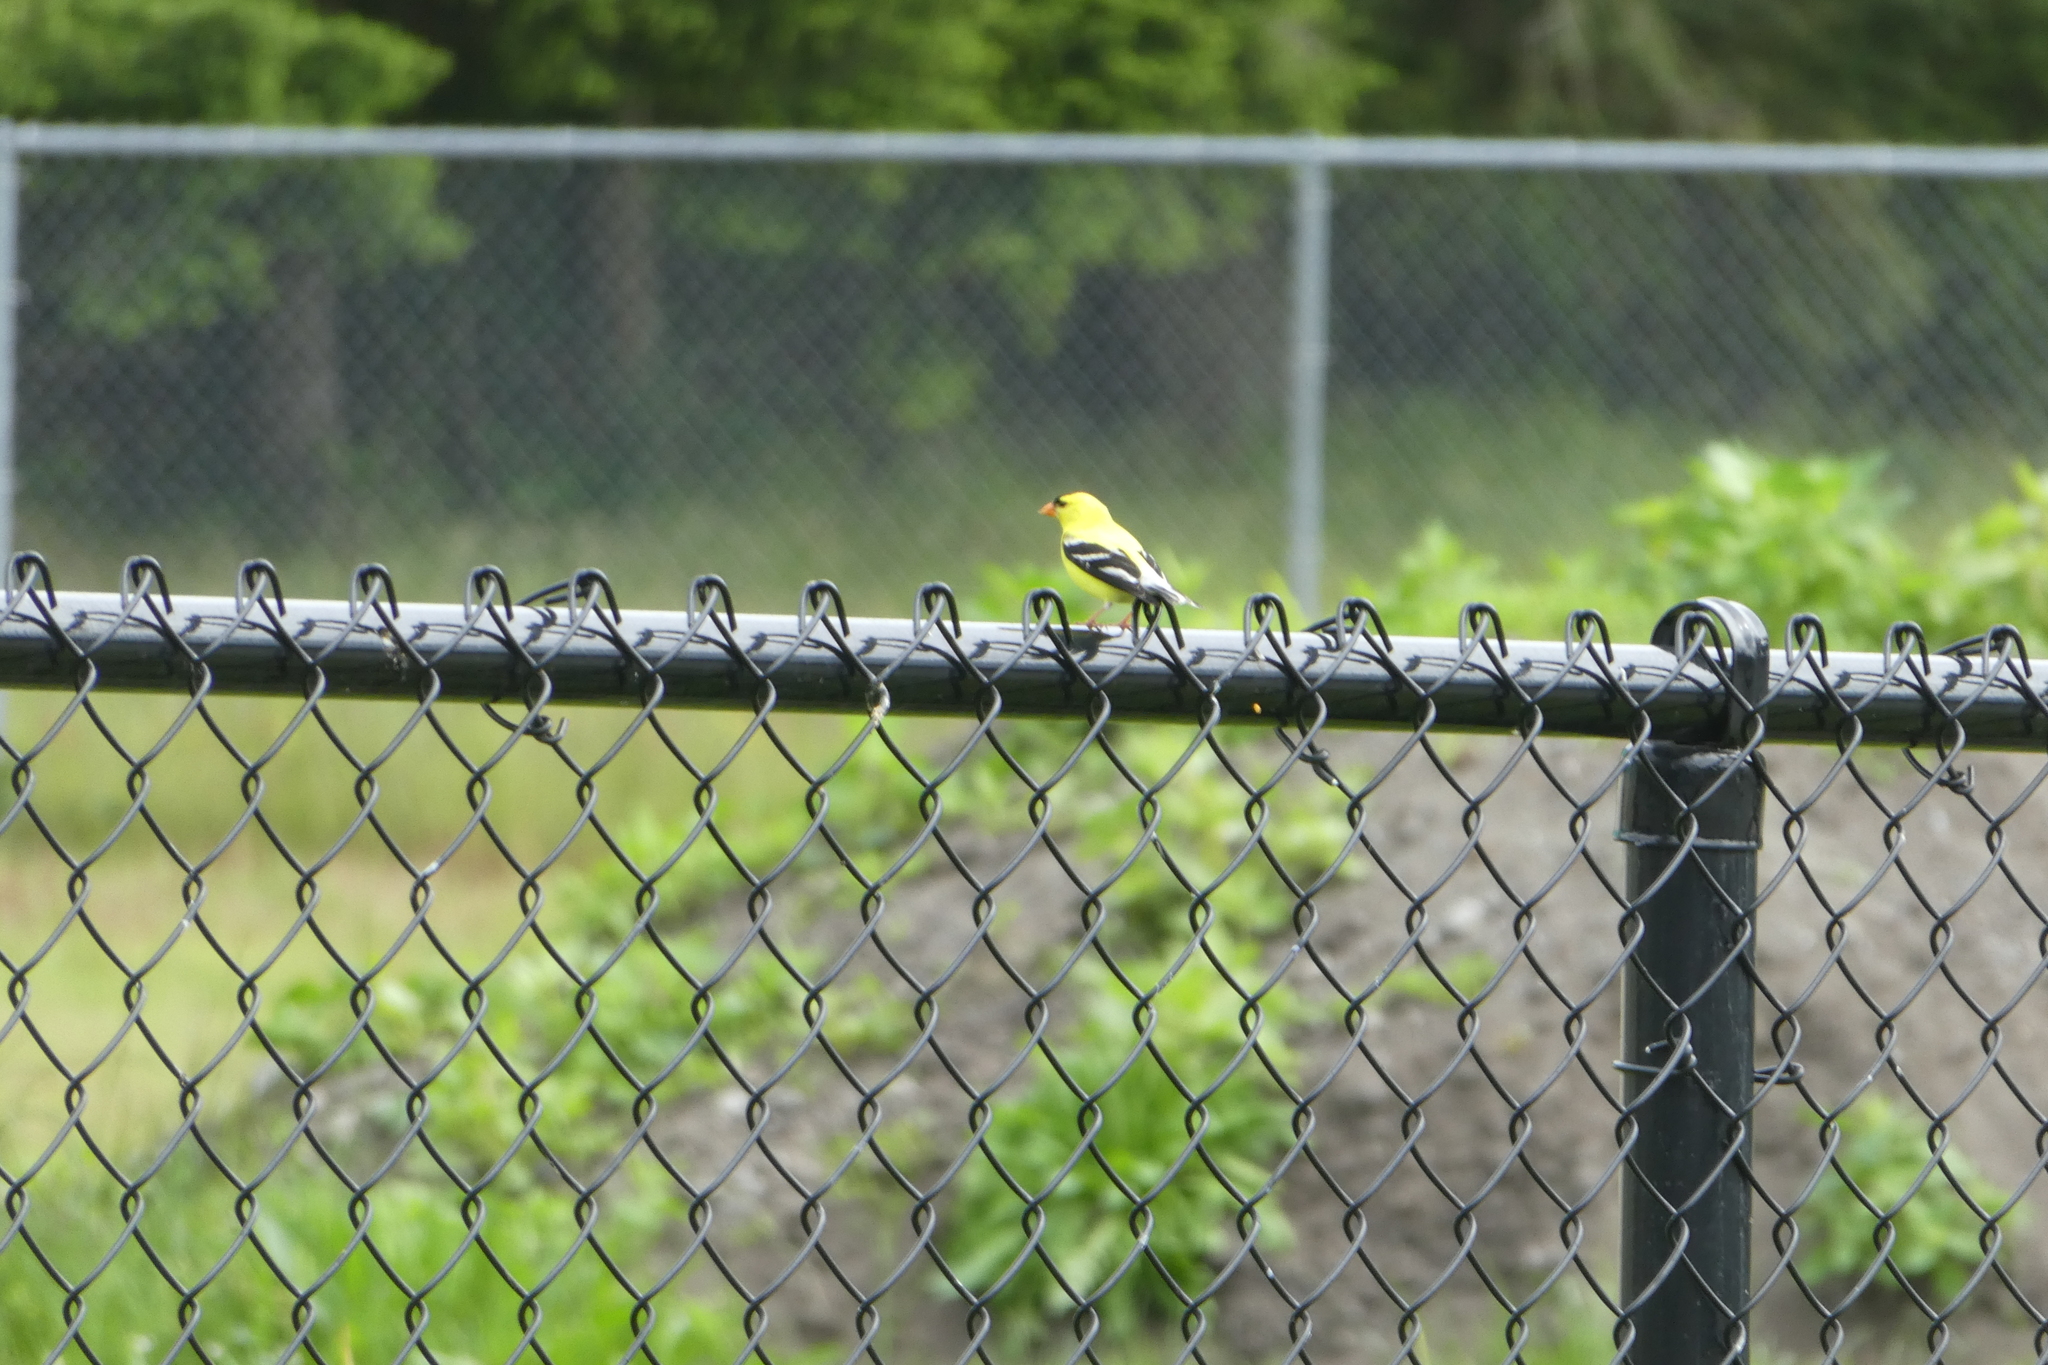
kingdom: Animalia
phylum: Chordata
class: Aves
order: Passeriformes
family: Fringillidae
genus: Spinus
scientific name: Spinus tristis
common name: American goldfinch
